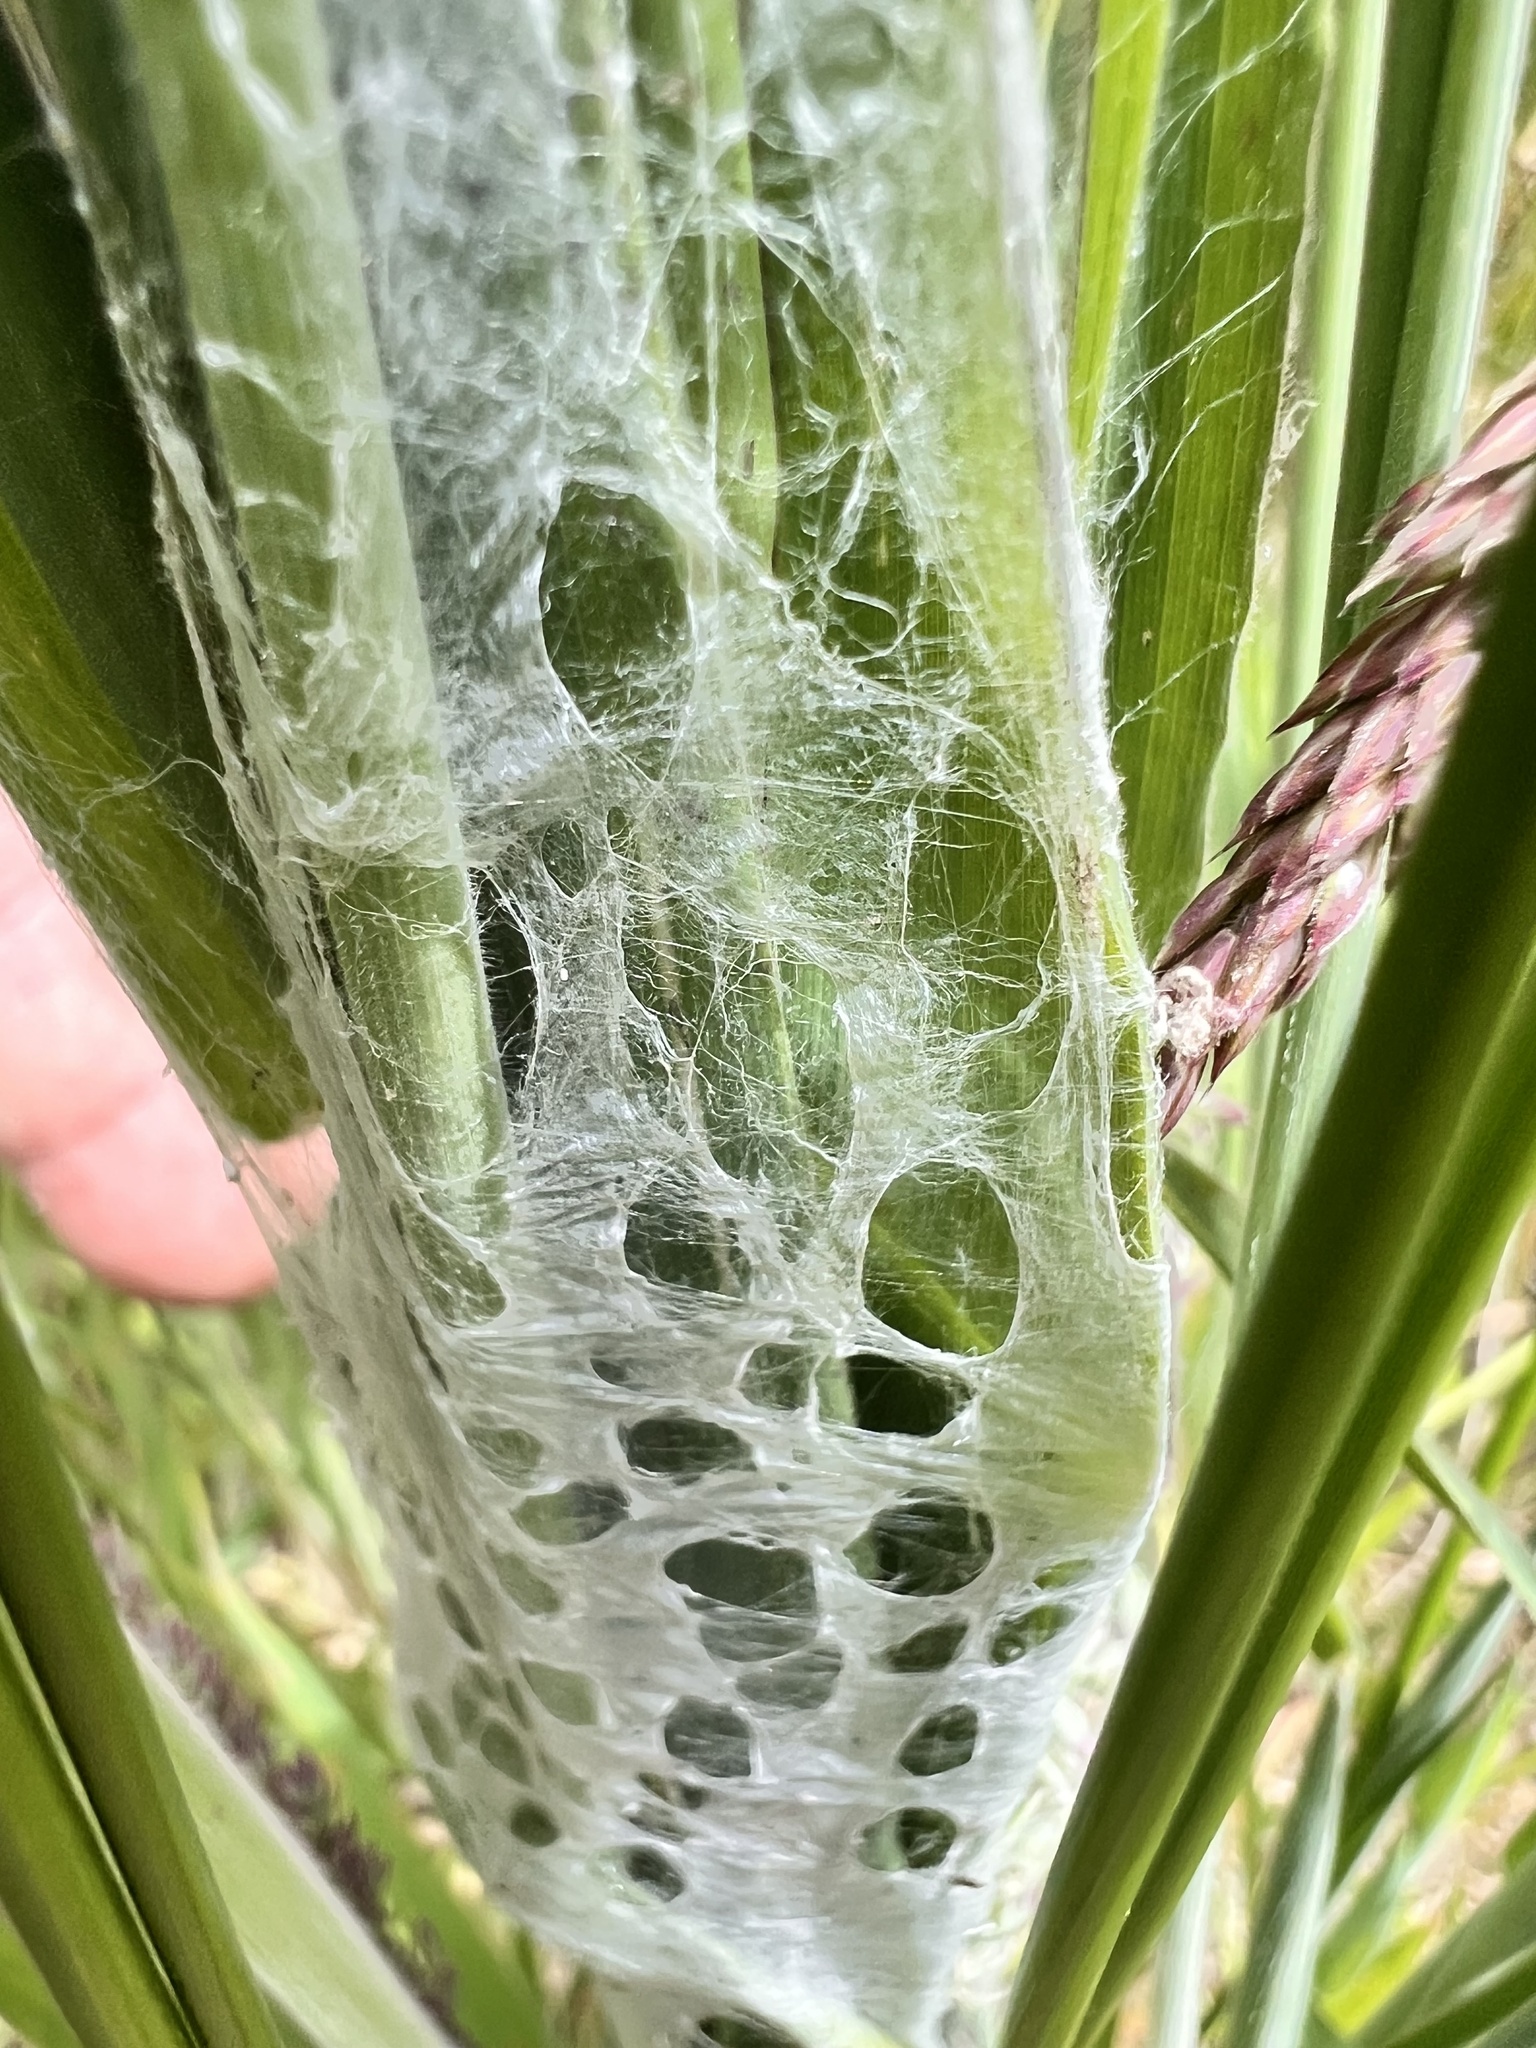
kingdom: Animalia
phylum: Arthropoda
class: Arachnida
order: Araneae
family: Pisauridae
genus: Dolomedes
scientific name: Dolomedes minor
